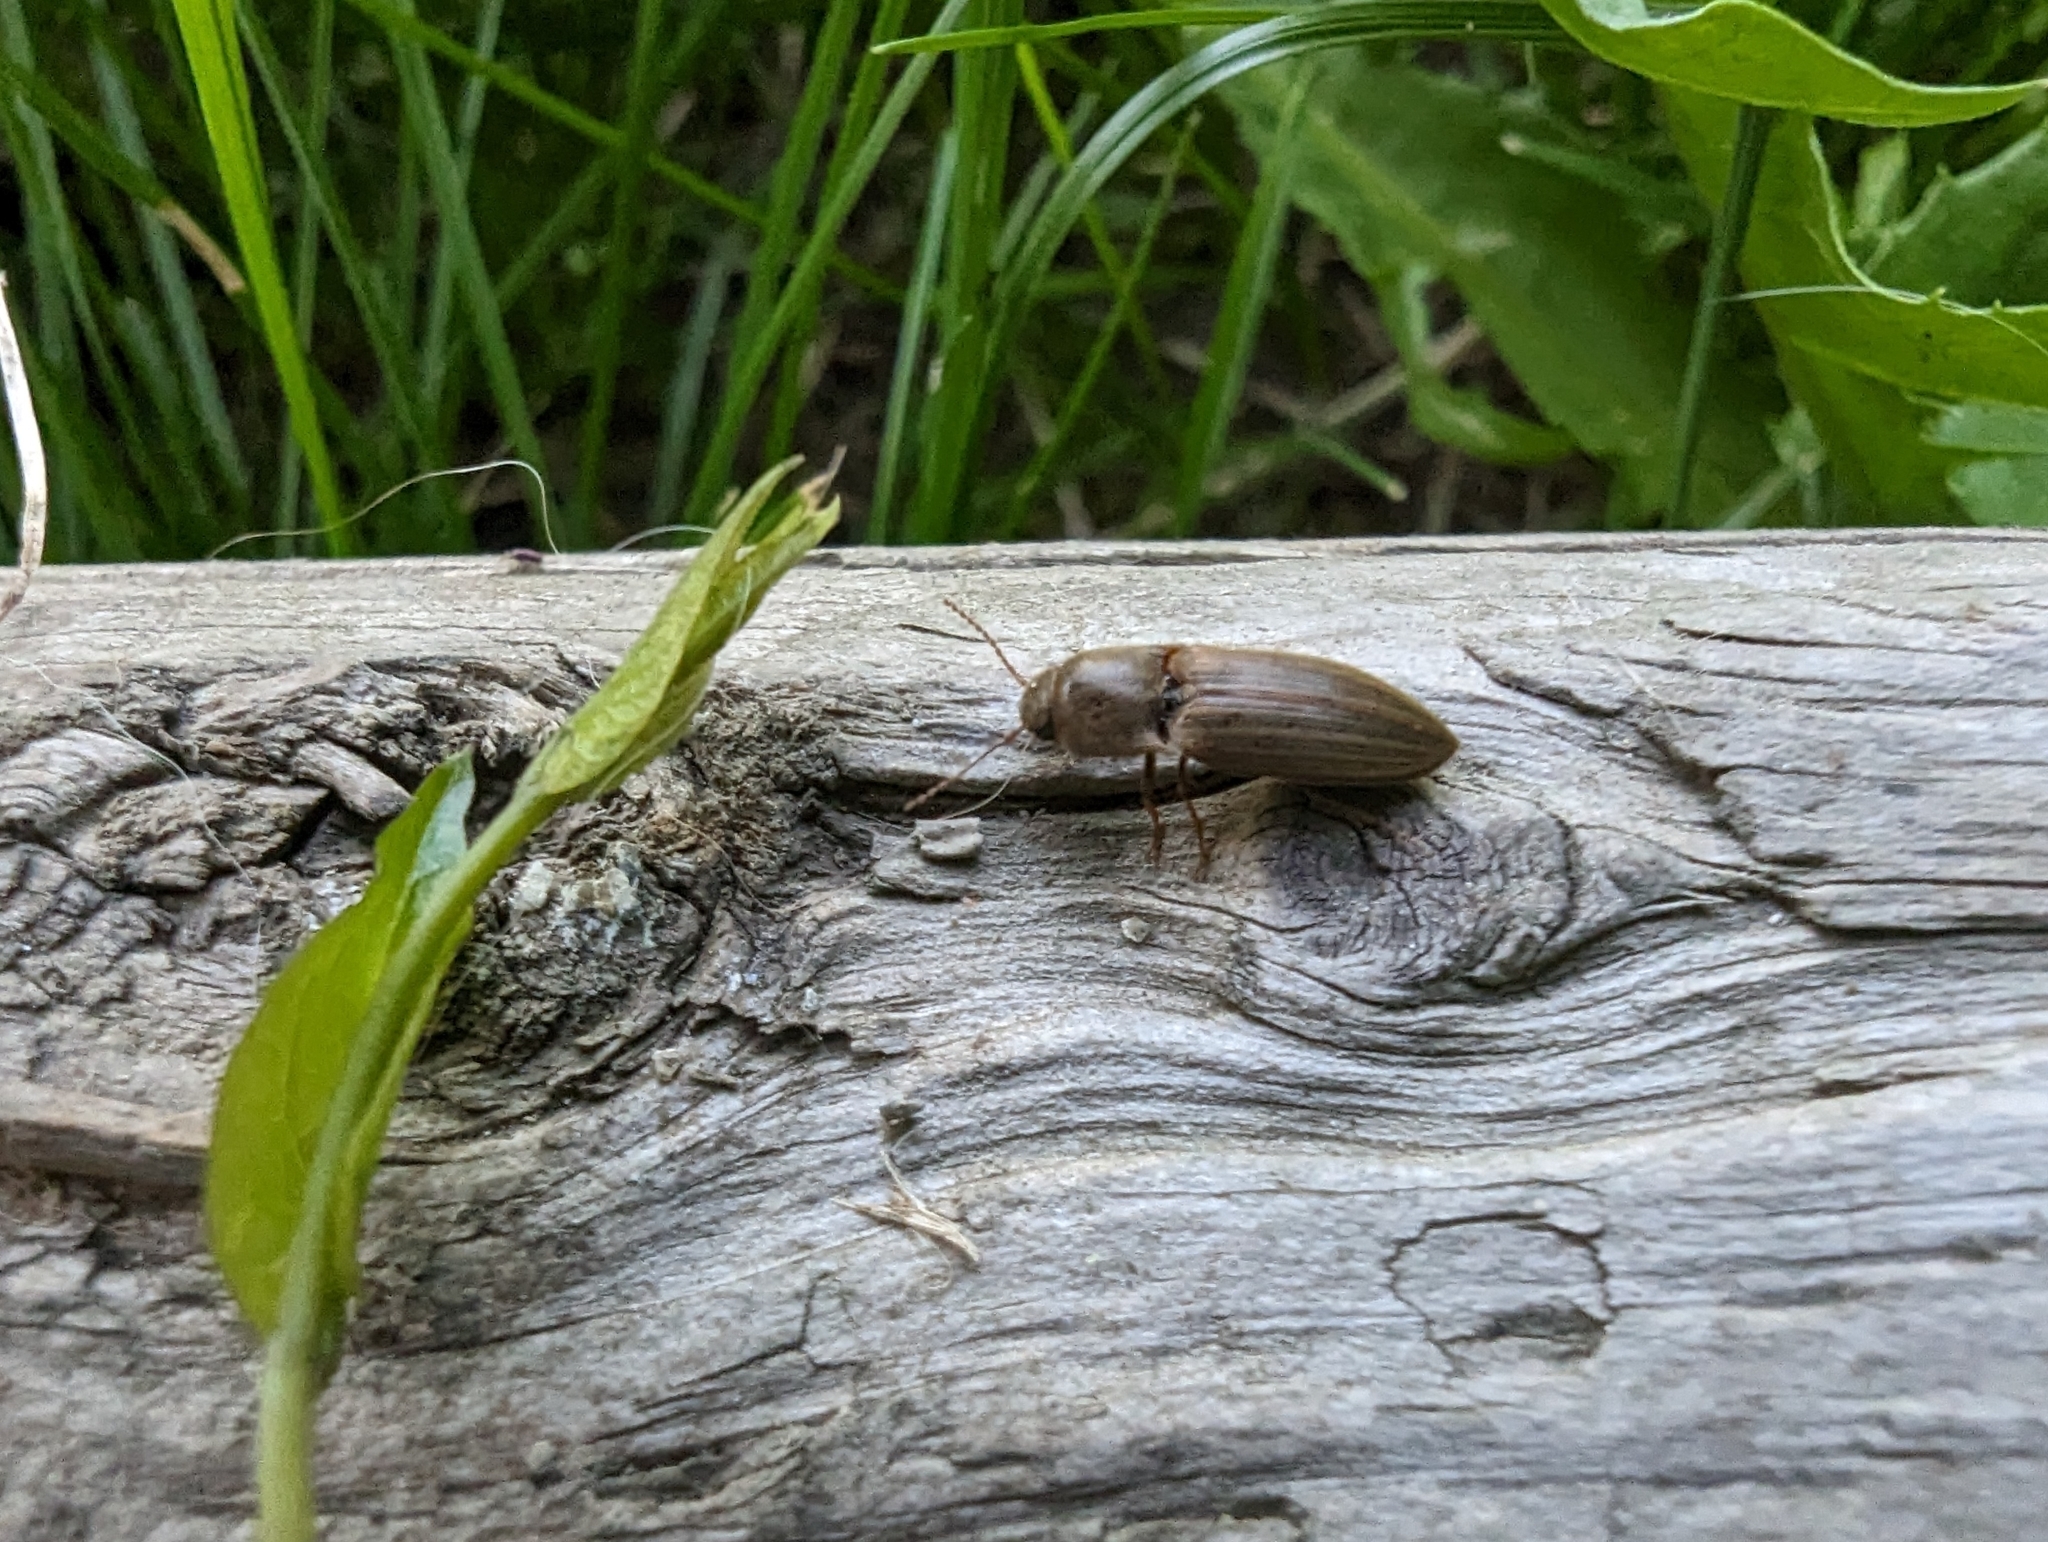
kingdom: Animalia
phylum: Arthropoda
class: Insecta
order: Coleoptera
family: Elateridae
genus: Agriotes
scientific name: Agriotes lineatus
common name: Lined click beetle
